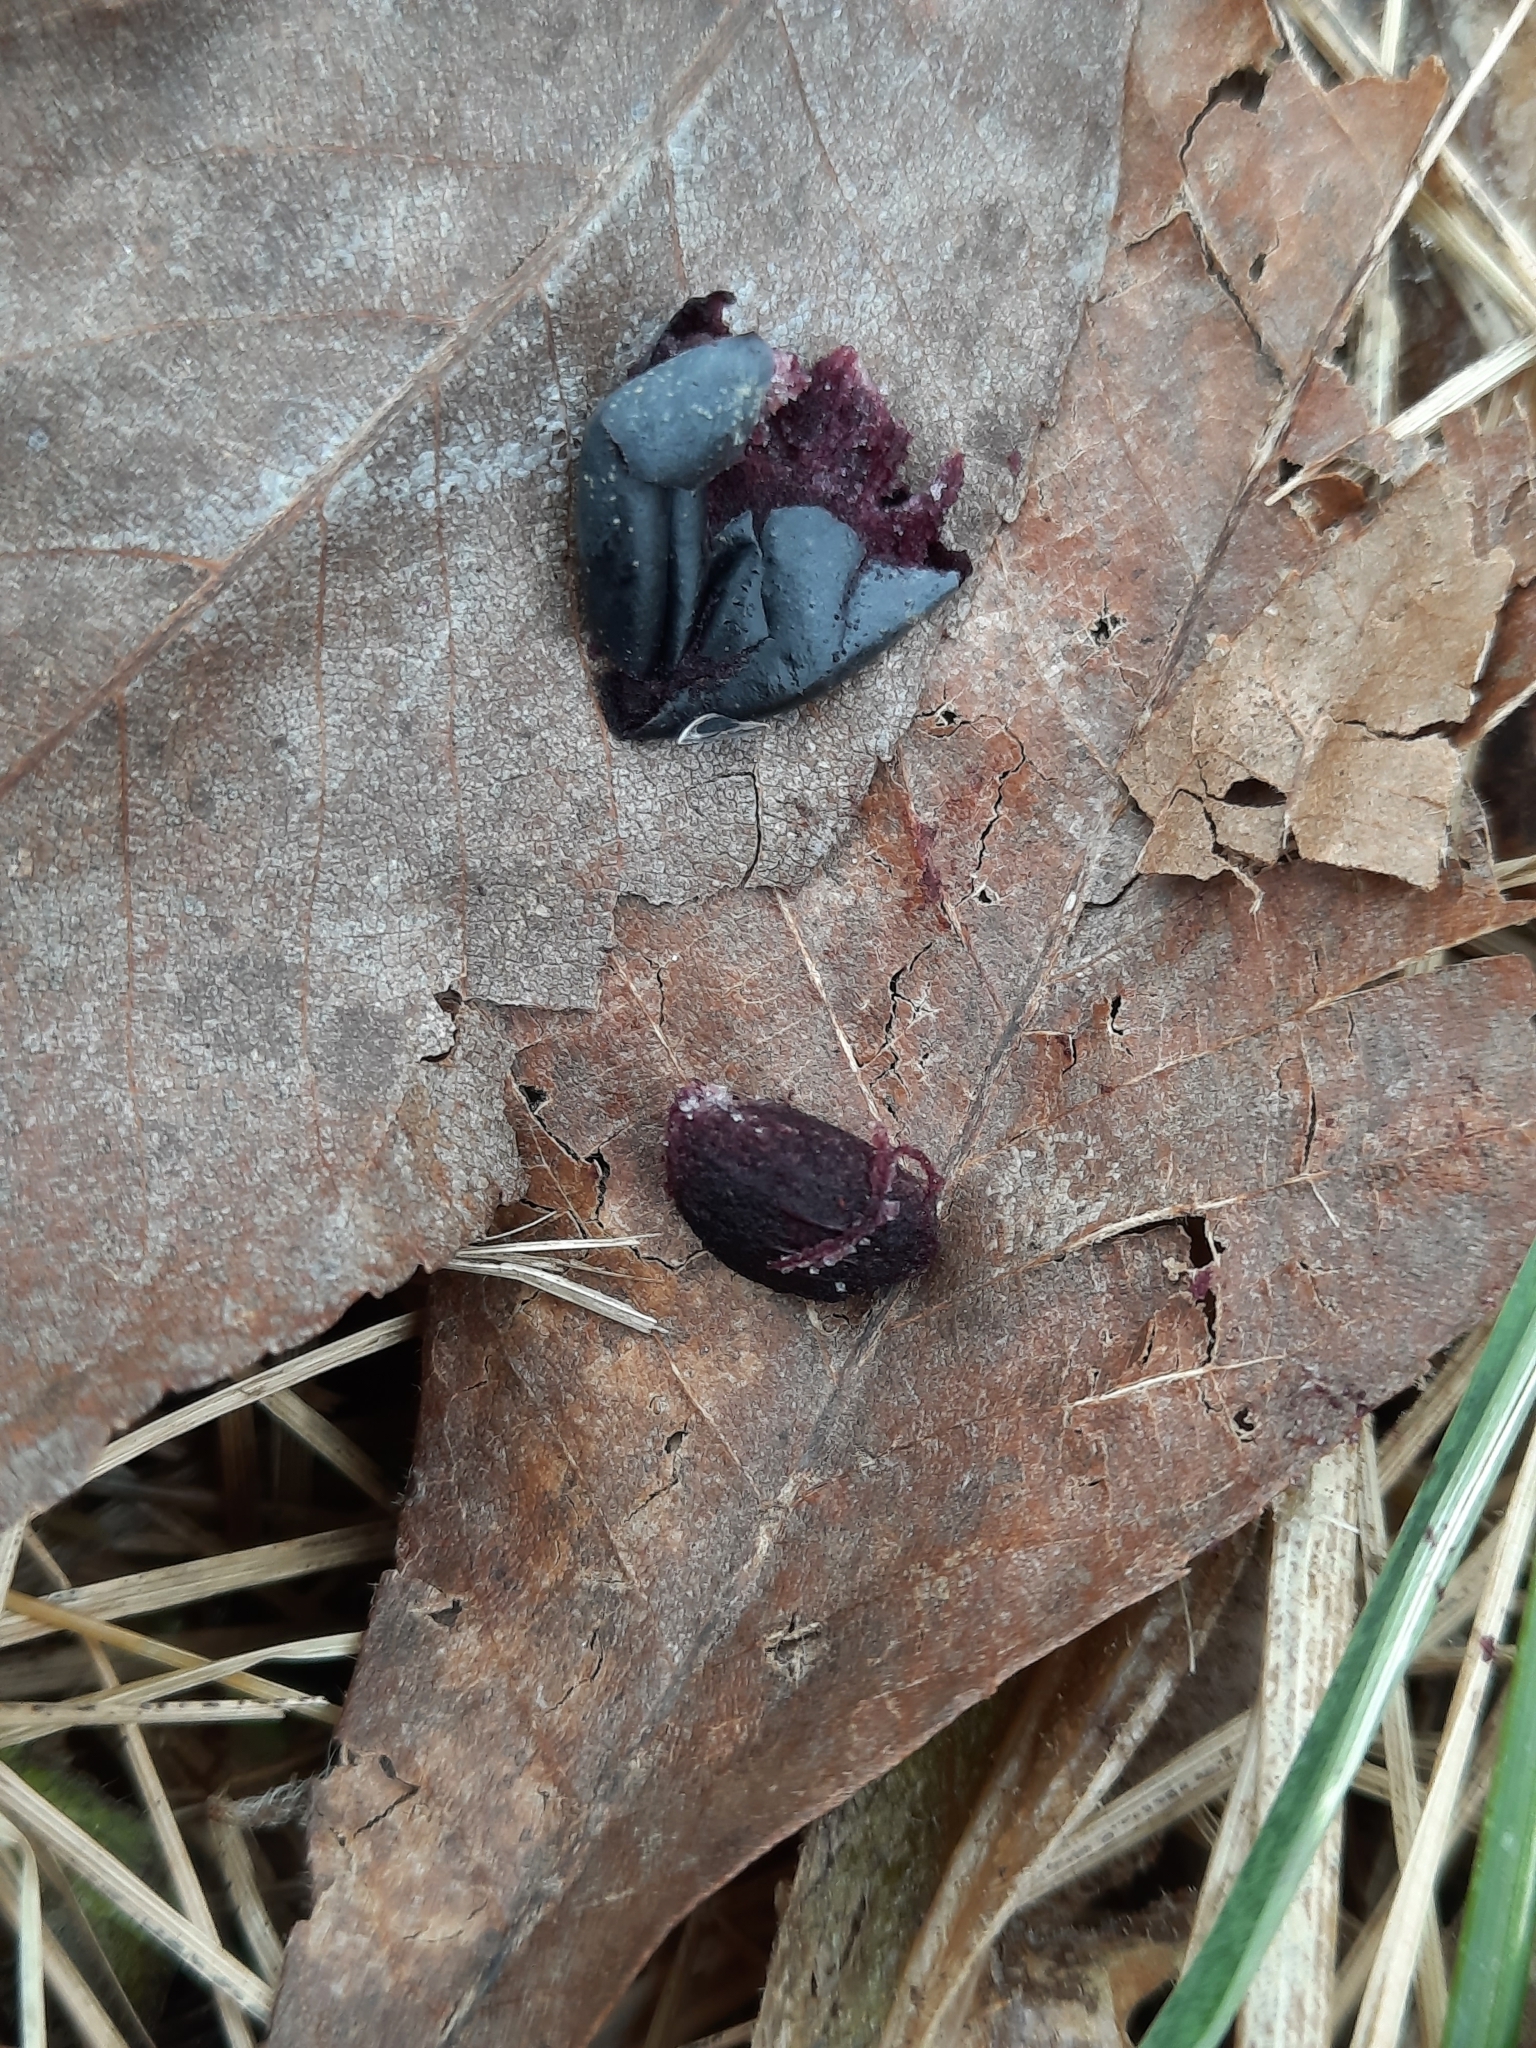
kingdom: Plantae
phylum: Tracheophyta
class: Magnoliopsida
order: Lamiales
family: Oleaceae
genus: Ligustrum
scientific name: Ligustrum obtusifolium
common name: Border privet
